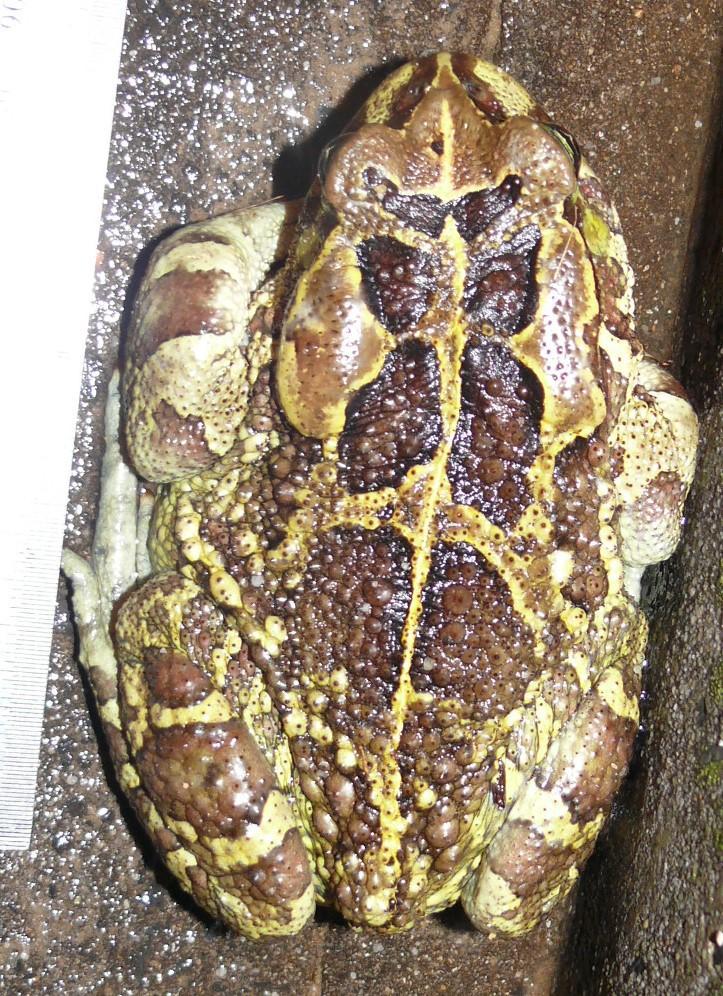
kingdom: Animalia
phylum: Chordata
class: Amphibia
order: Anura
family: Bufonidae
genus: Sclerophrys
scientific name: Sclerophrys pantherina
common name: Panther toad
